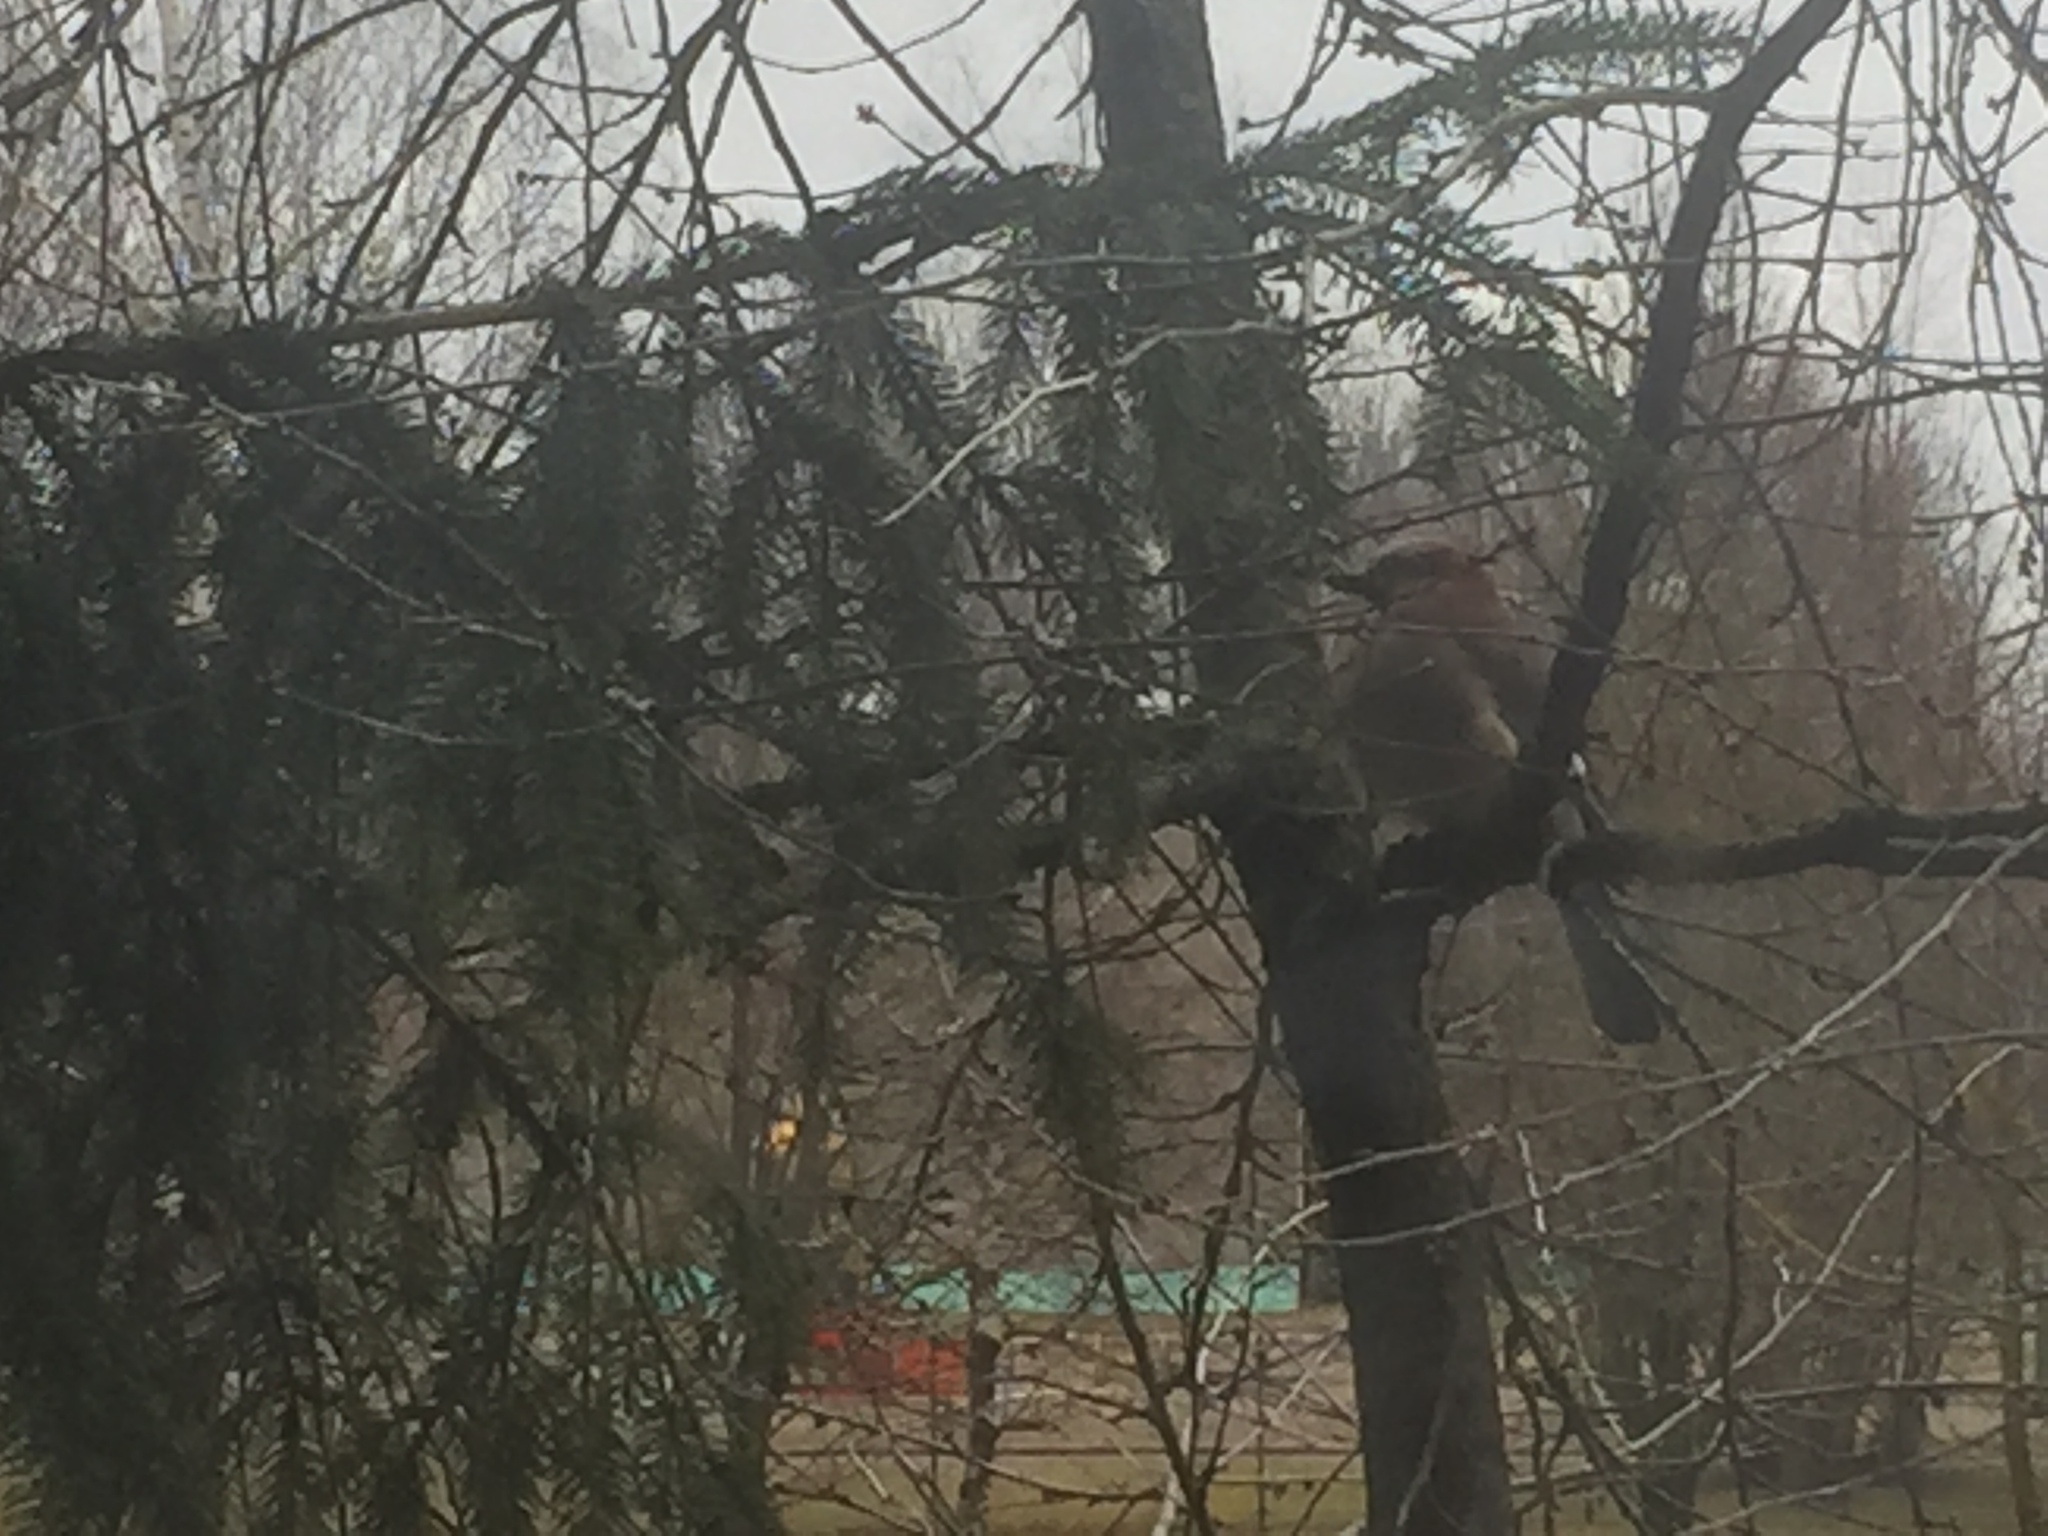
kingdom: Animalia
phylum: Chordata
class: Aves
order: Passeriformes
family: Corvidae
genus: Garrulus
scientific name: Garrulus glandarius
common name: Eurasian jay
